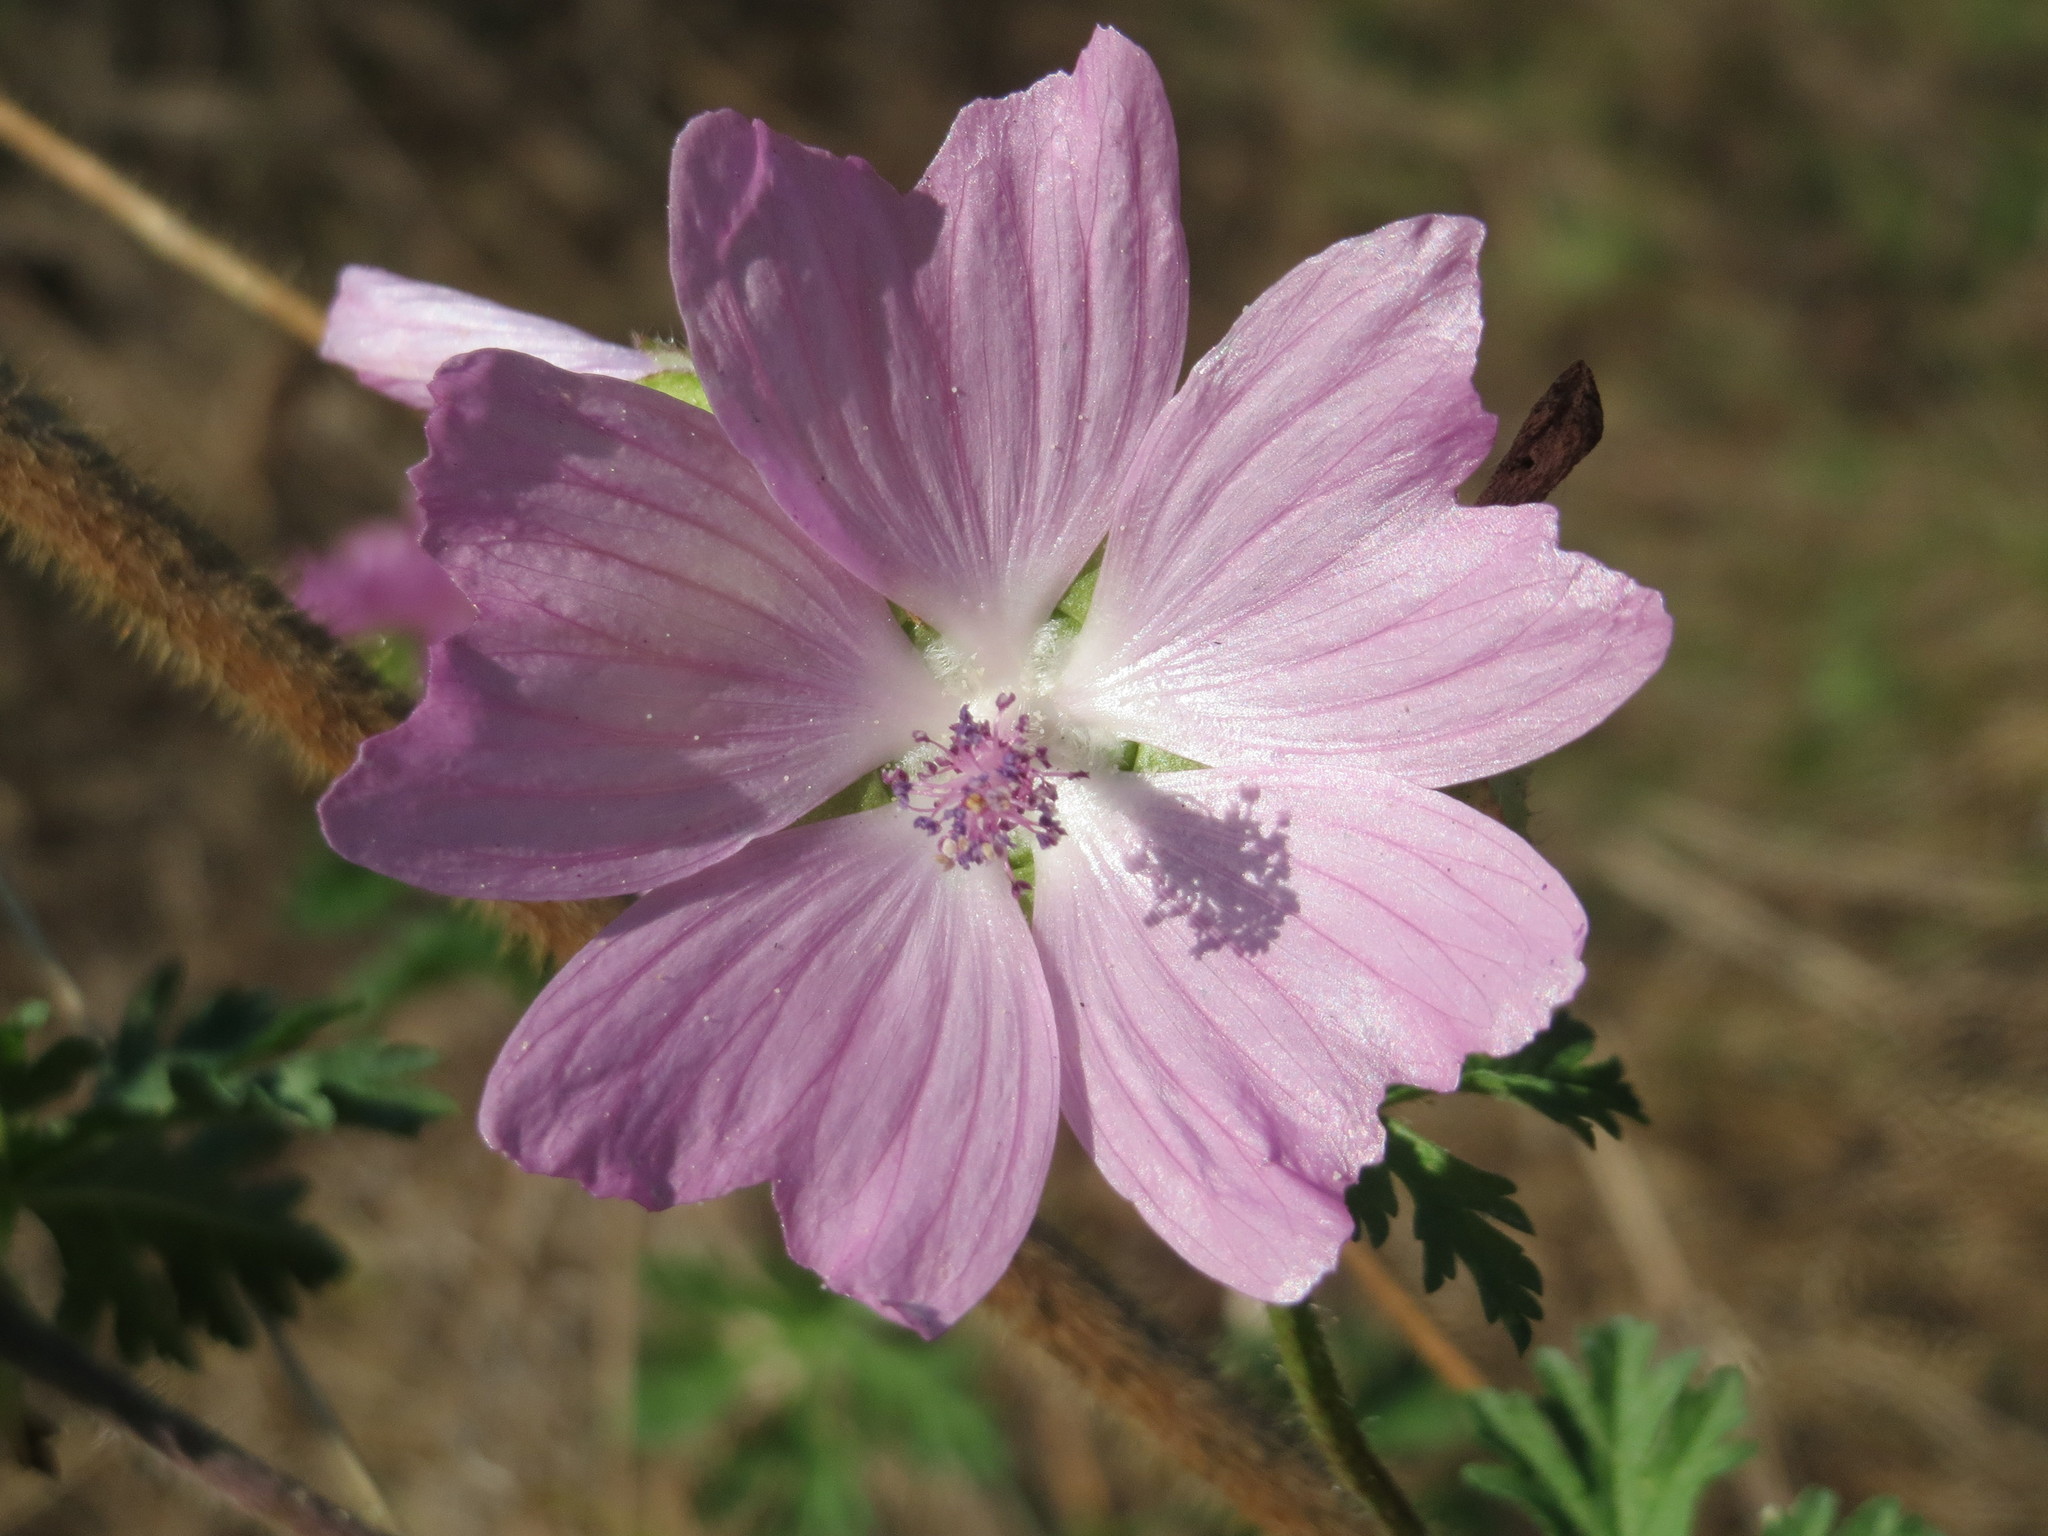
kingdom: Plantae
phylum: Tracheophyta
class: Magnoliopsida
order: Malvales
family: Malvaceae
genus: Malva
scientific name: Malva moschata
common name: Musk mallow
